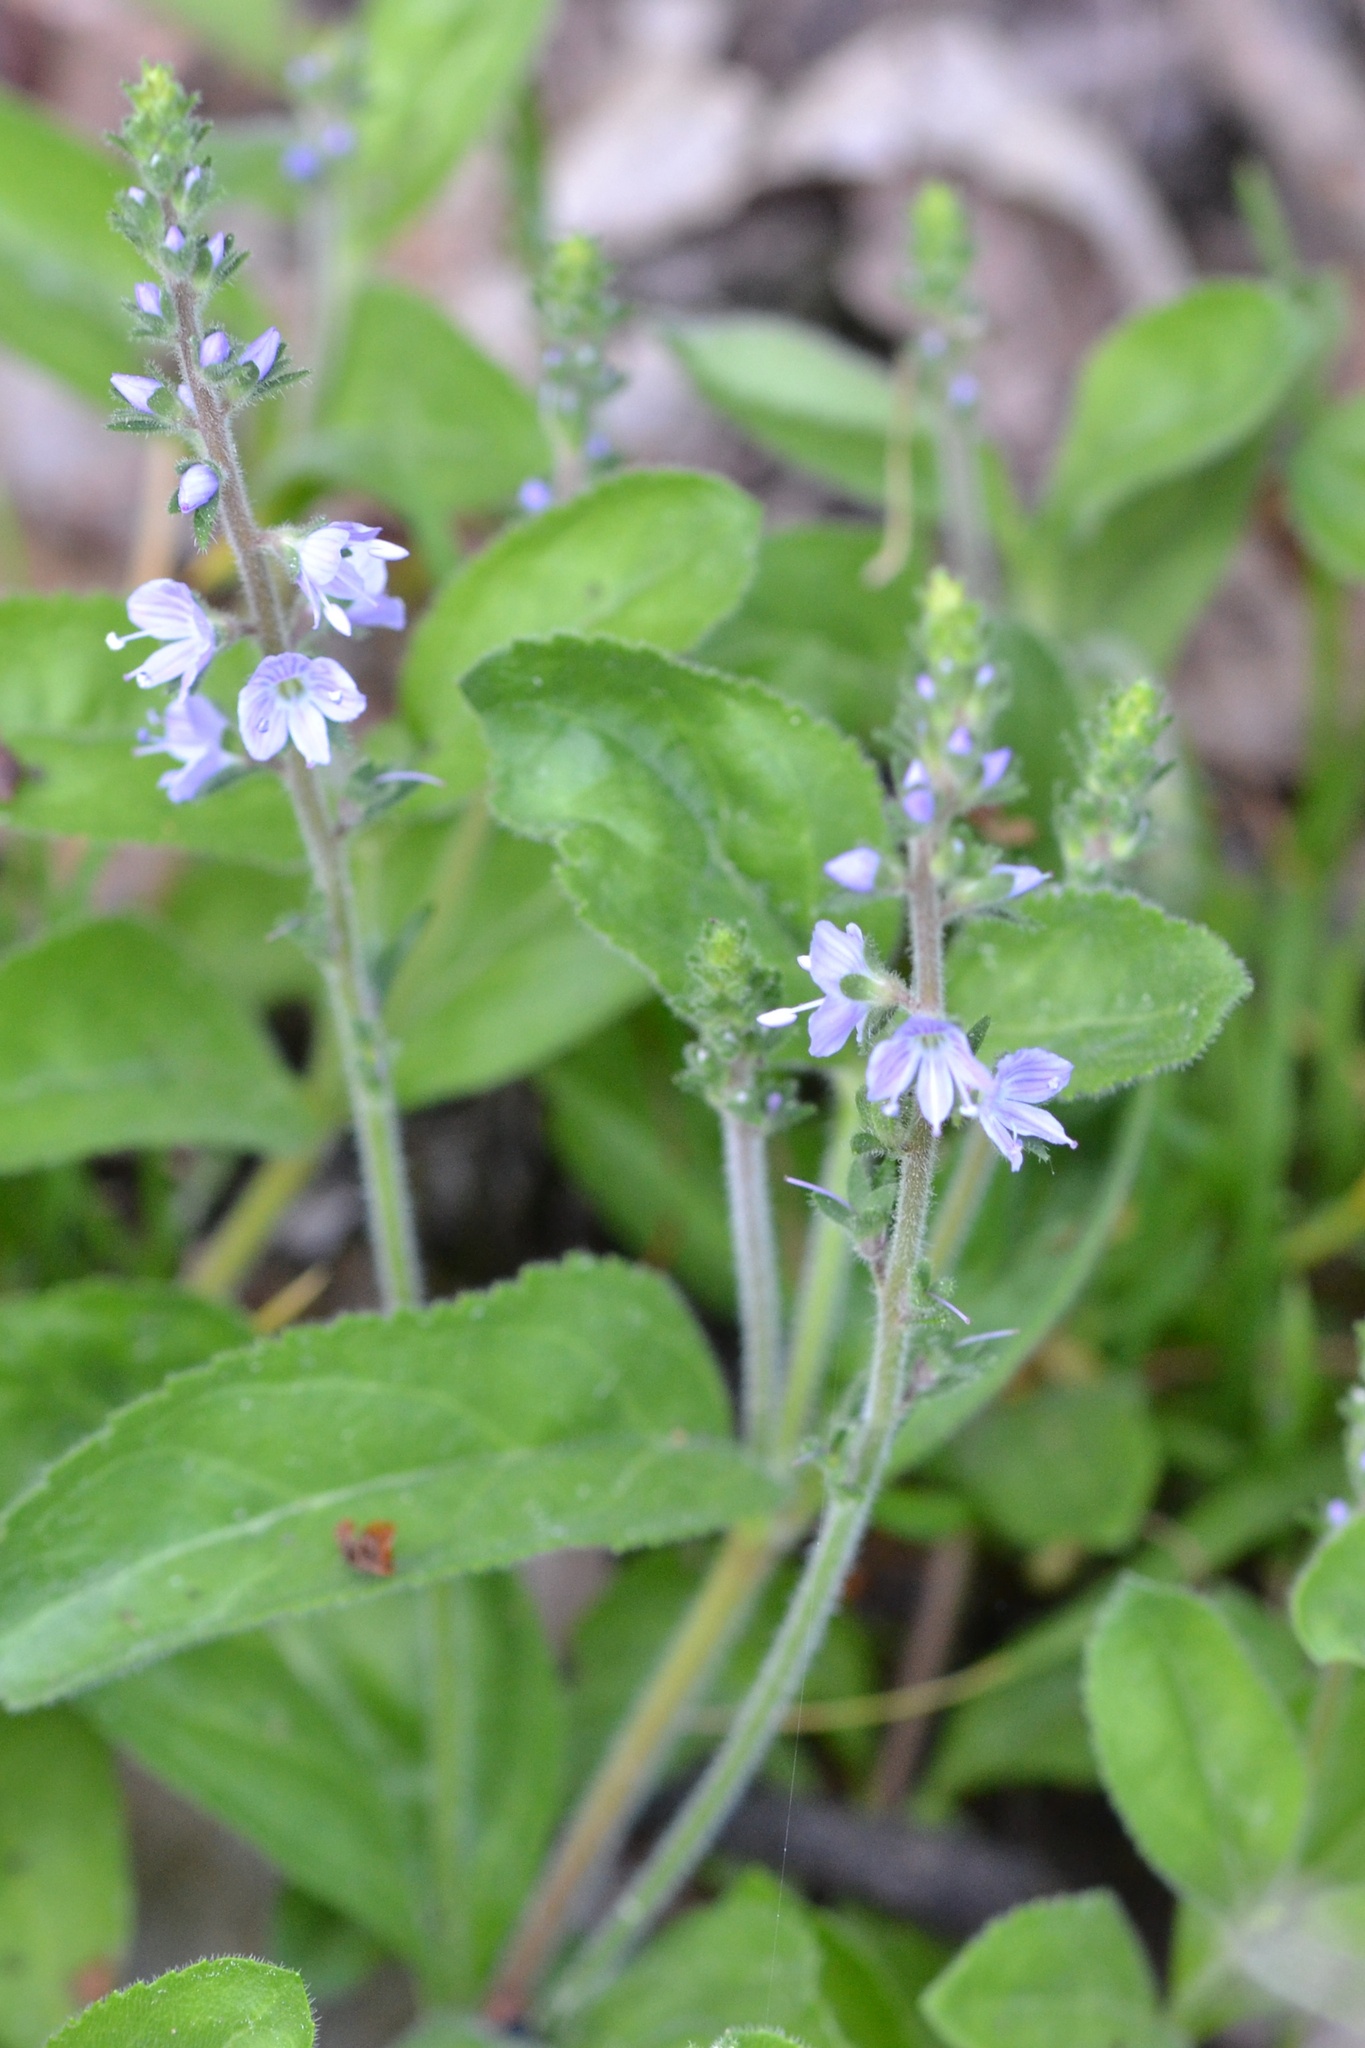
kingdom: Plantae
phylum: Tracheophyta
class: Magnoliopsida
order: Lamiales
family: Plantaginaceae
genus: Veronica
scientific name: Veronica officinalis
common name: Common speedwell
